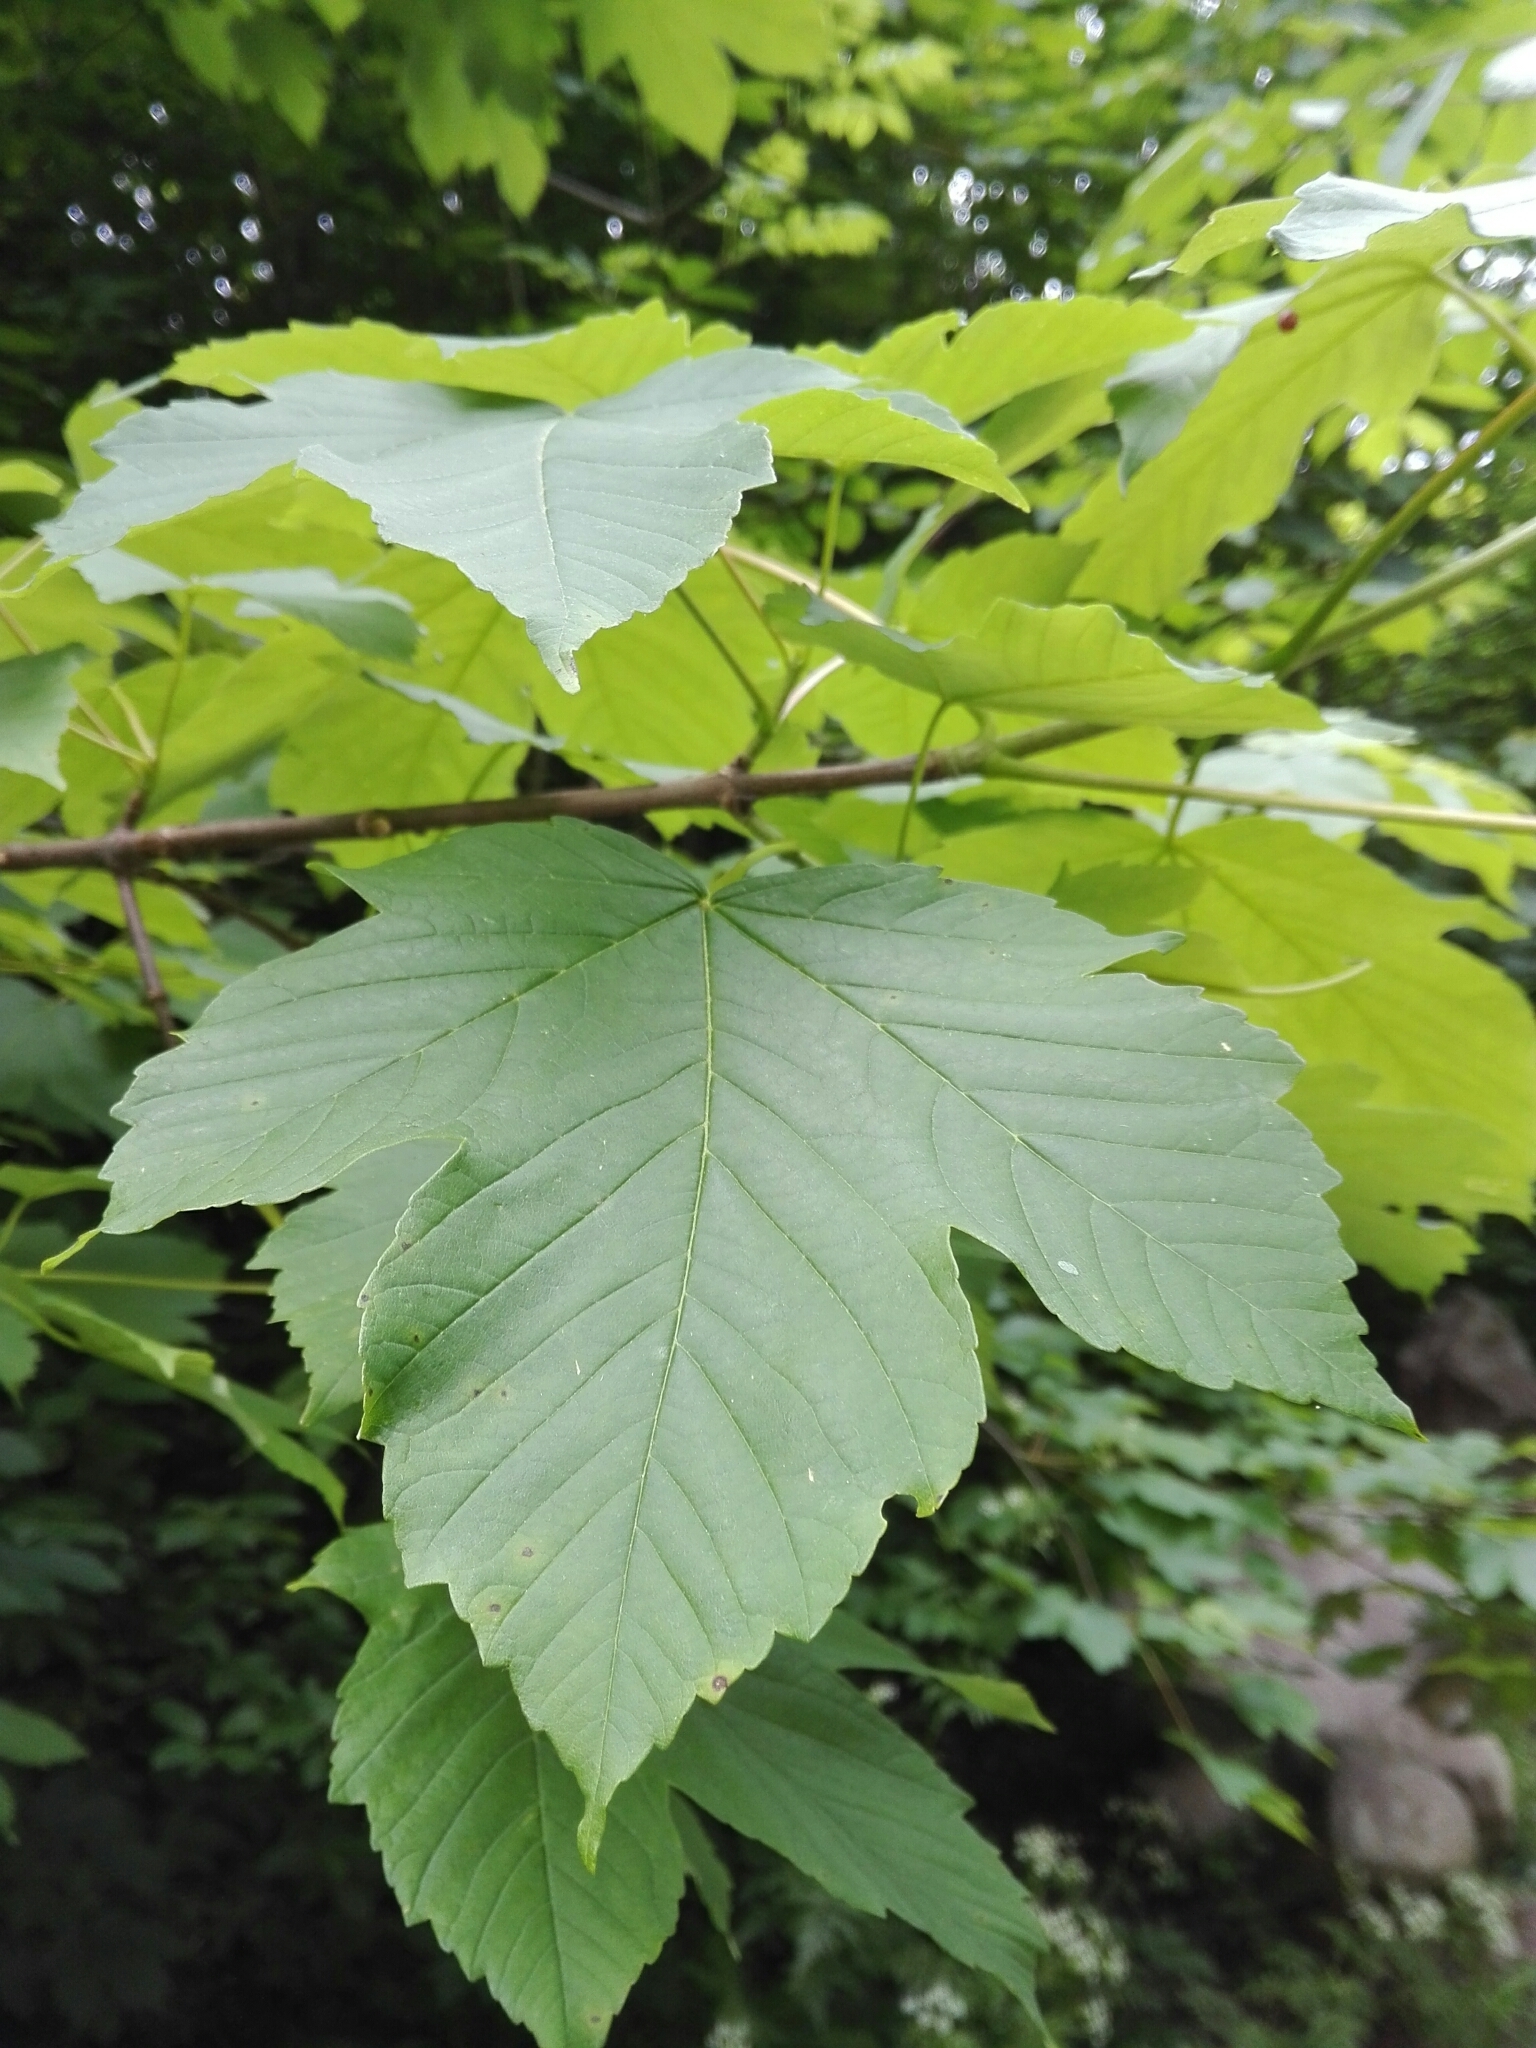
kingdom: Plantae
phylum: Tracheophyta
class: Magnoliopsida
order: Sapindales
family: Sapindaceae
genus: Acer
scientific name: Acer pseudoplatanus
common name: Sycamore
